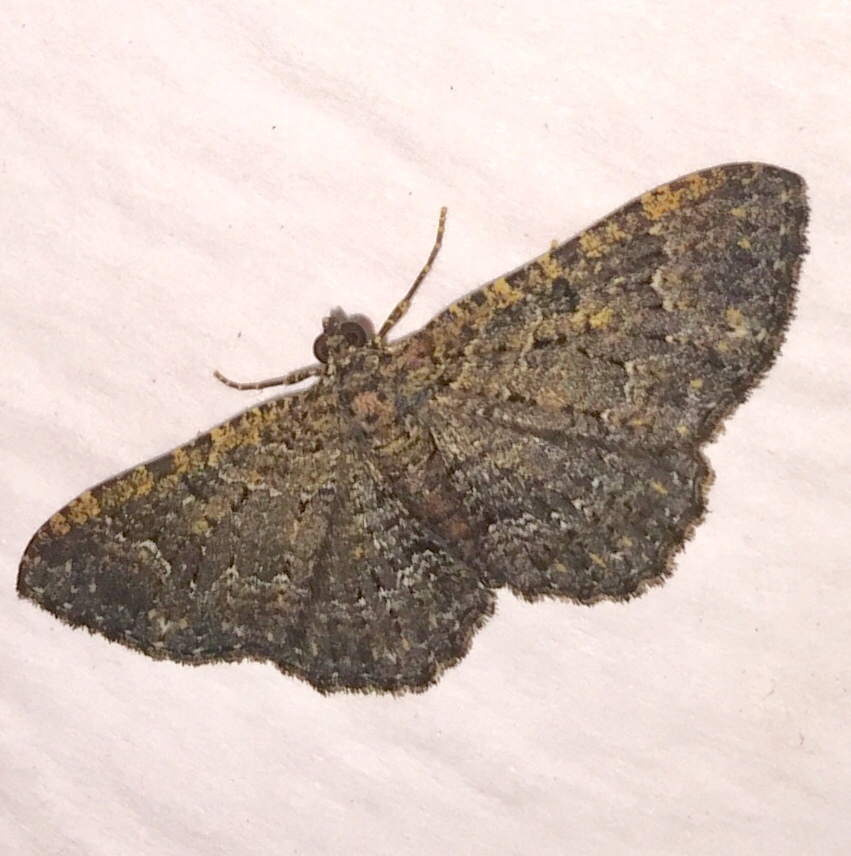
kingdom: Animalia
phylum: Arthropoda
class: Insecta
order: Lepidoptera
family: Geometridae
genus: Disclisioprocta
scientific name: Disclisioprocta stellata
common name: Somber carpet
